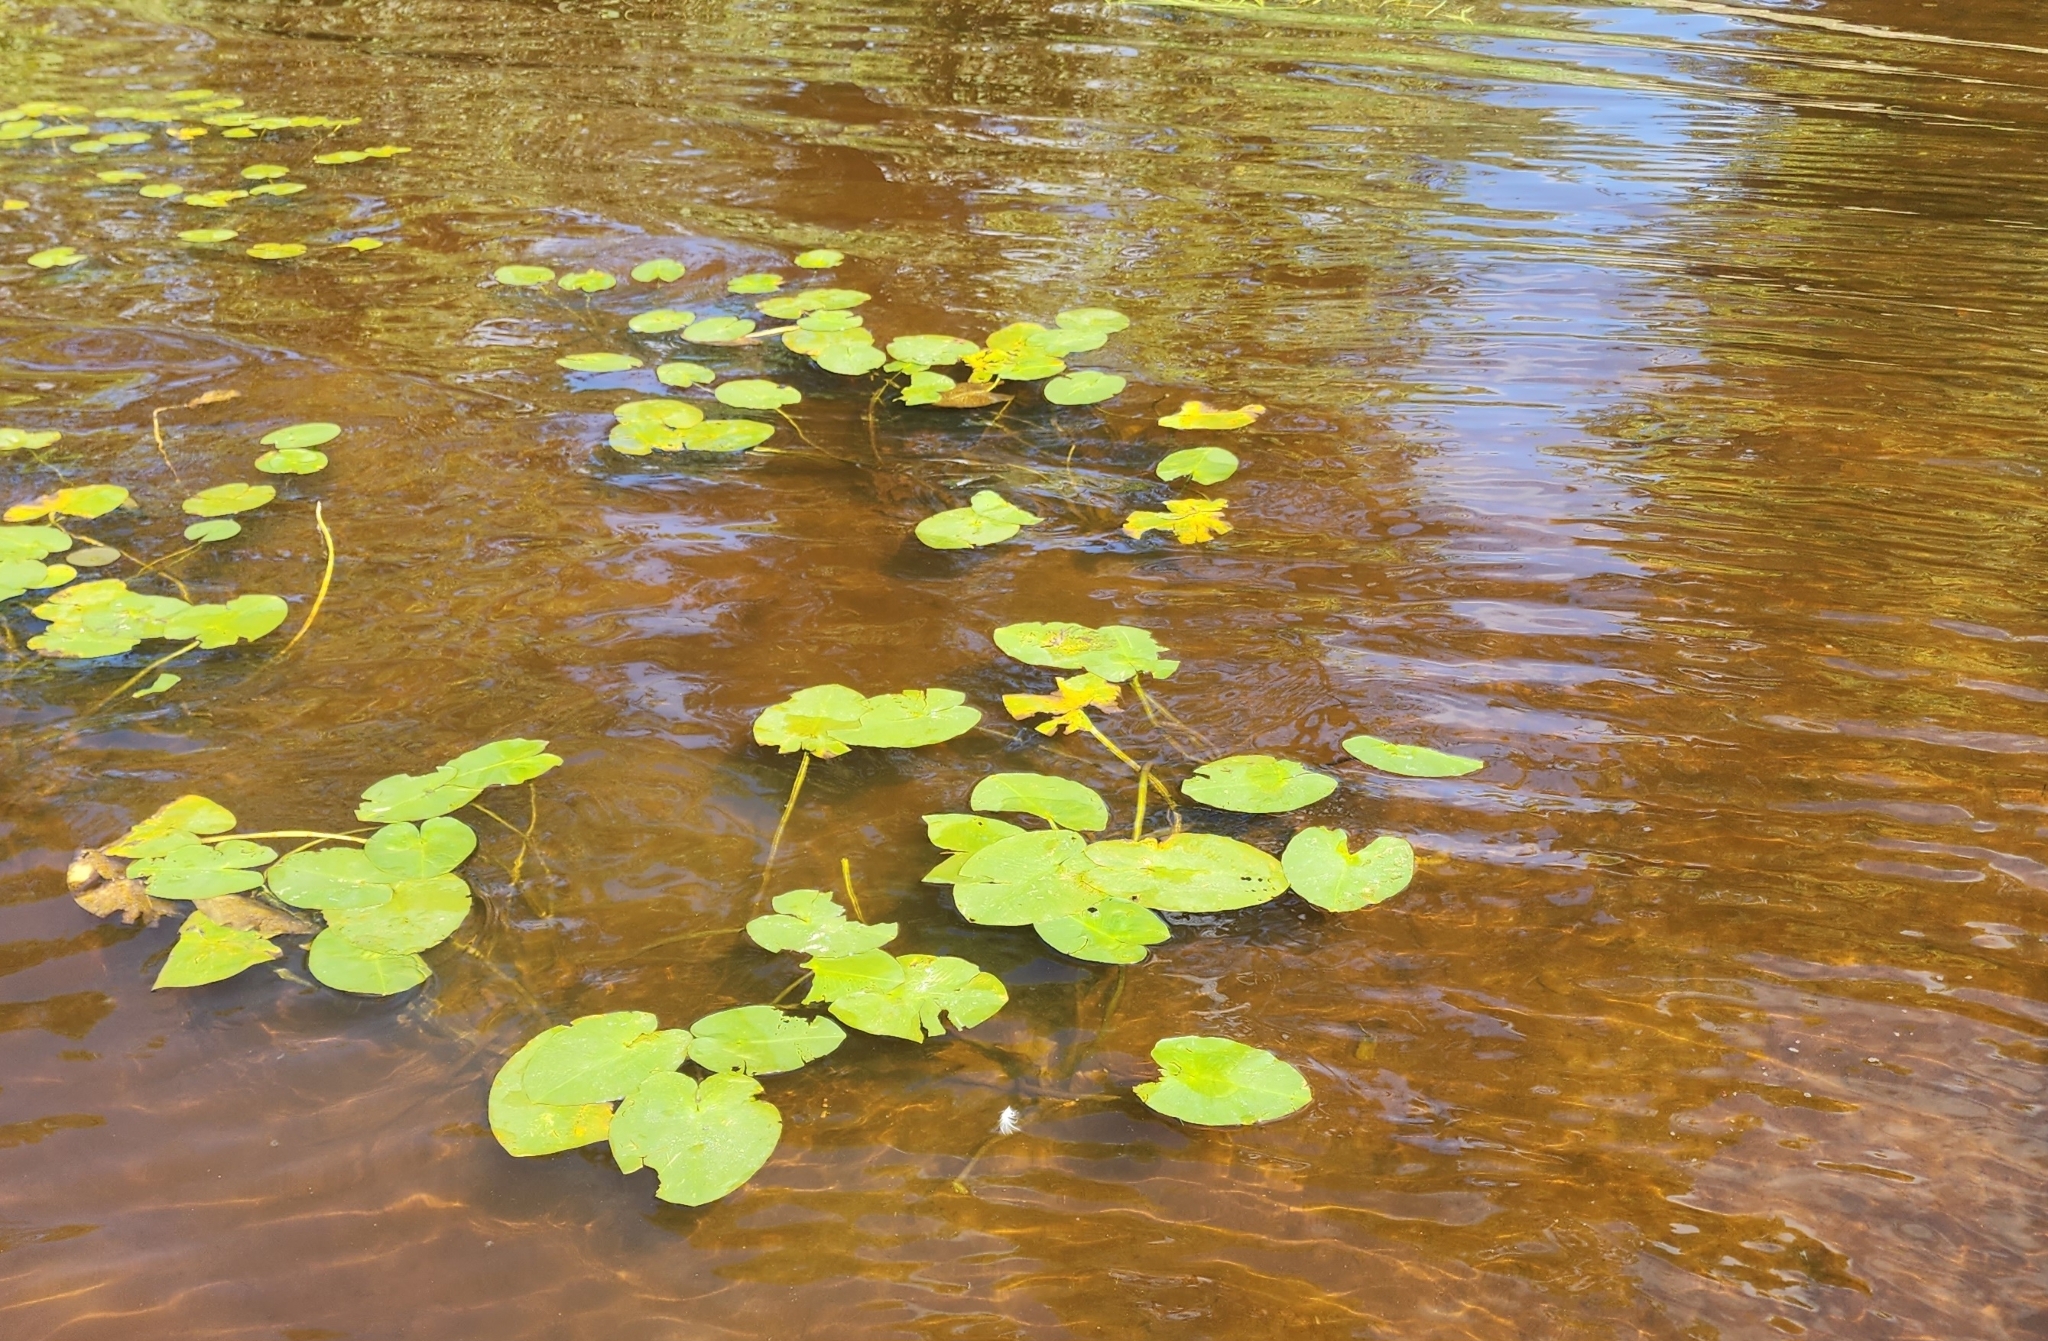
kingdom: Plantae
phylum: Tracheophyta
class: Magnoliopsida
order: Nymphaeales
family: Nymphaeaceae
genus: Nuphar
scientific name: Nuphar variegata
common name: Beaver-root
